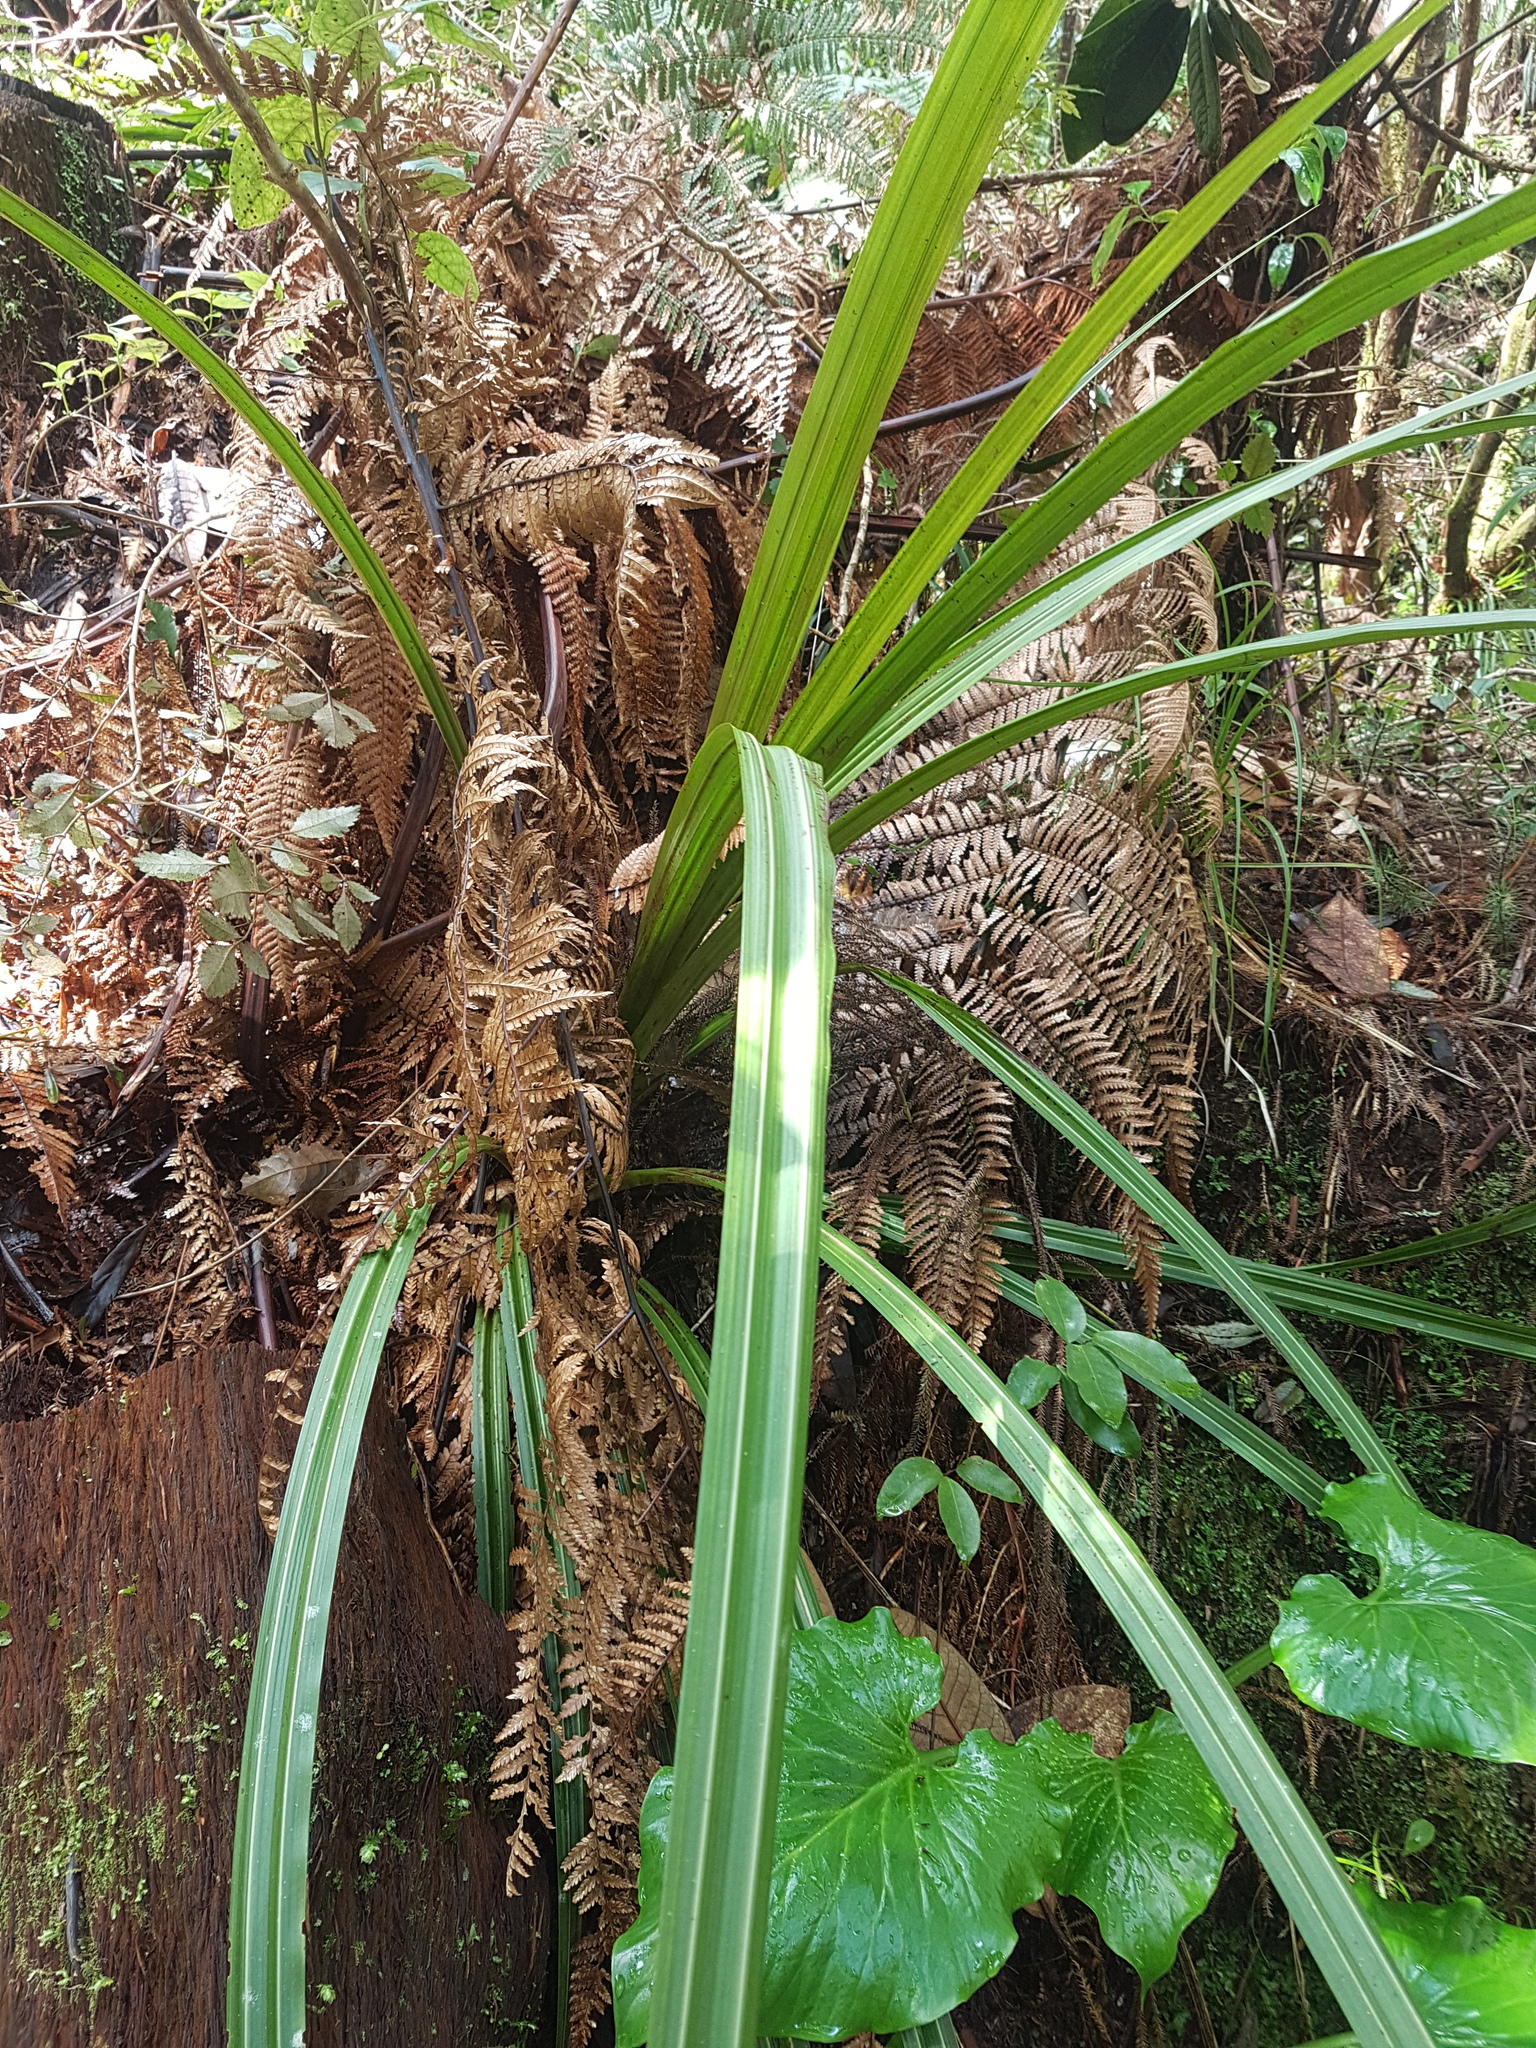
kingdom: Plantae
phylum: Tracheophyta
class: Liliopsida
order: Asparagales
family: Asteliaceae
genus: Astelia
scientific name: Astelia fragrans
